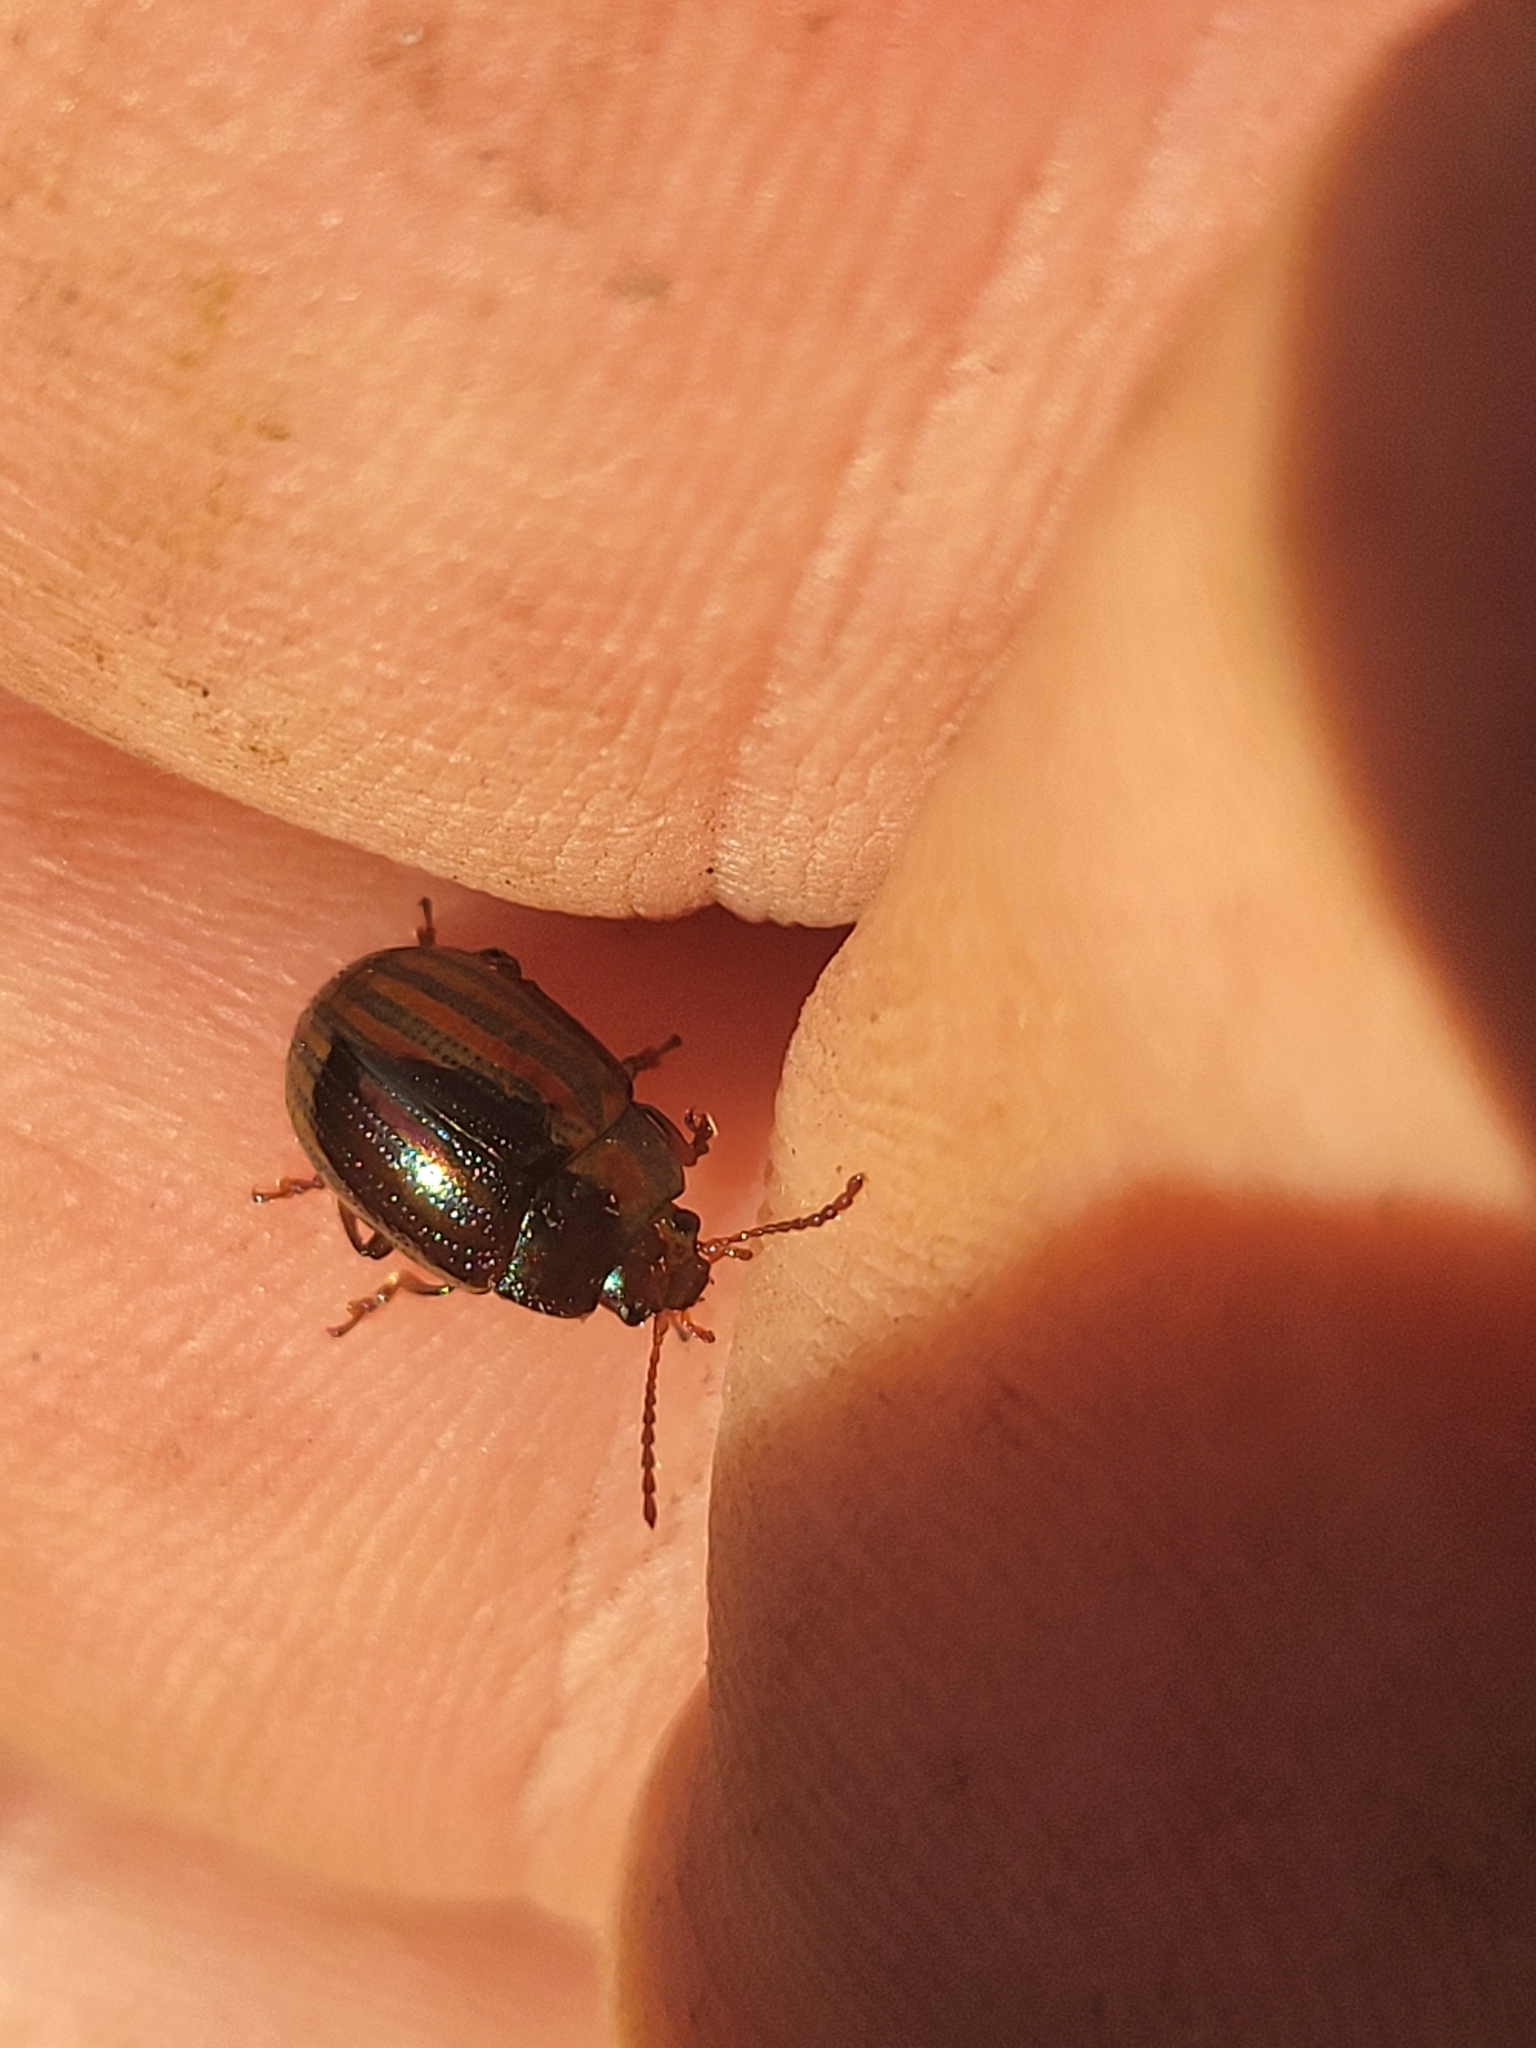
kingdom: Animalia
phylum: Arthropoda
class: Insecta
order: Coleoptera
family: Chrysomelidae
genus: Chrysolina
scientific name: Chrysolina americana
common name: Rosemary beetle
